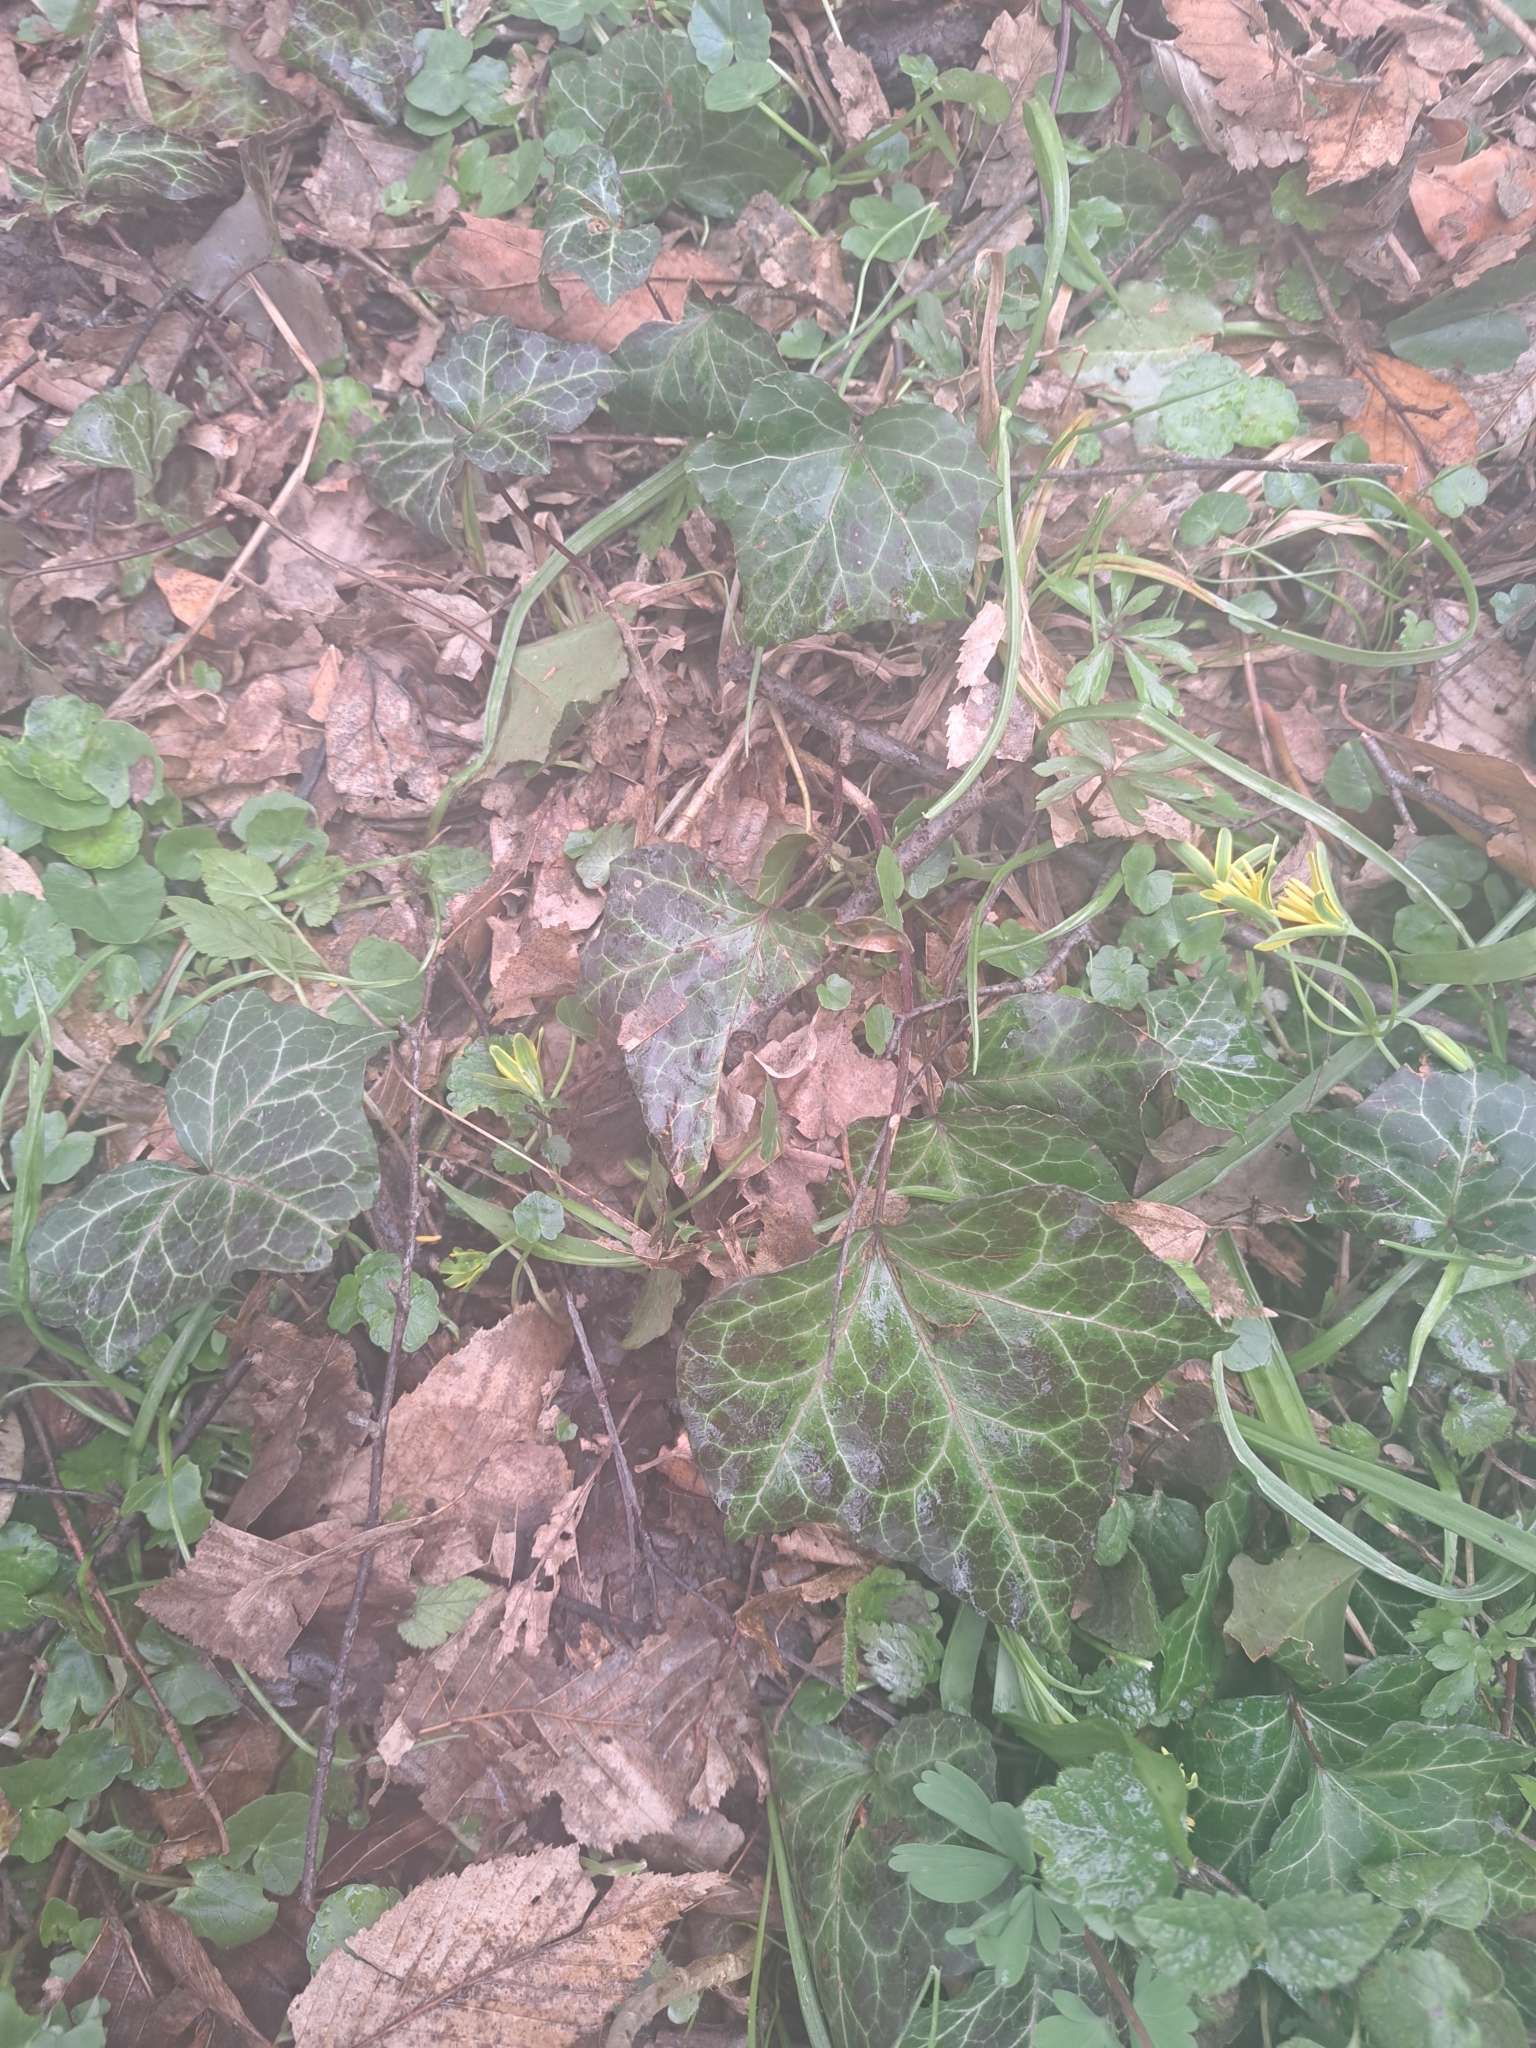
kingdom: Plantae
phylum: Tracheophyta
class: Magnoliopsida
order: Apiales
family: Araliaceae
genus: Hedera
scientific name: Hedera helix
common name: Ivy
